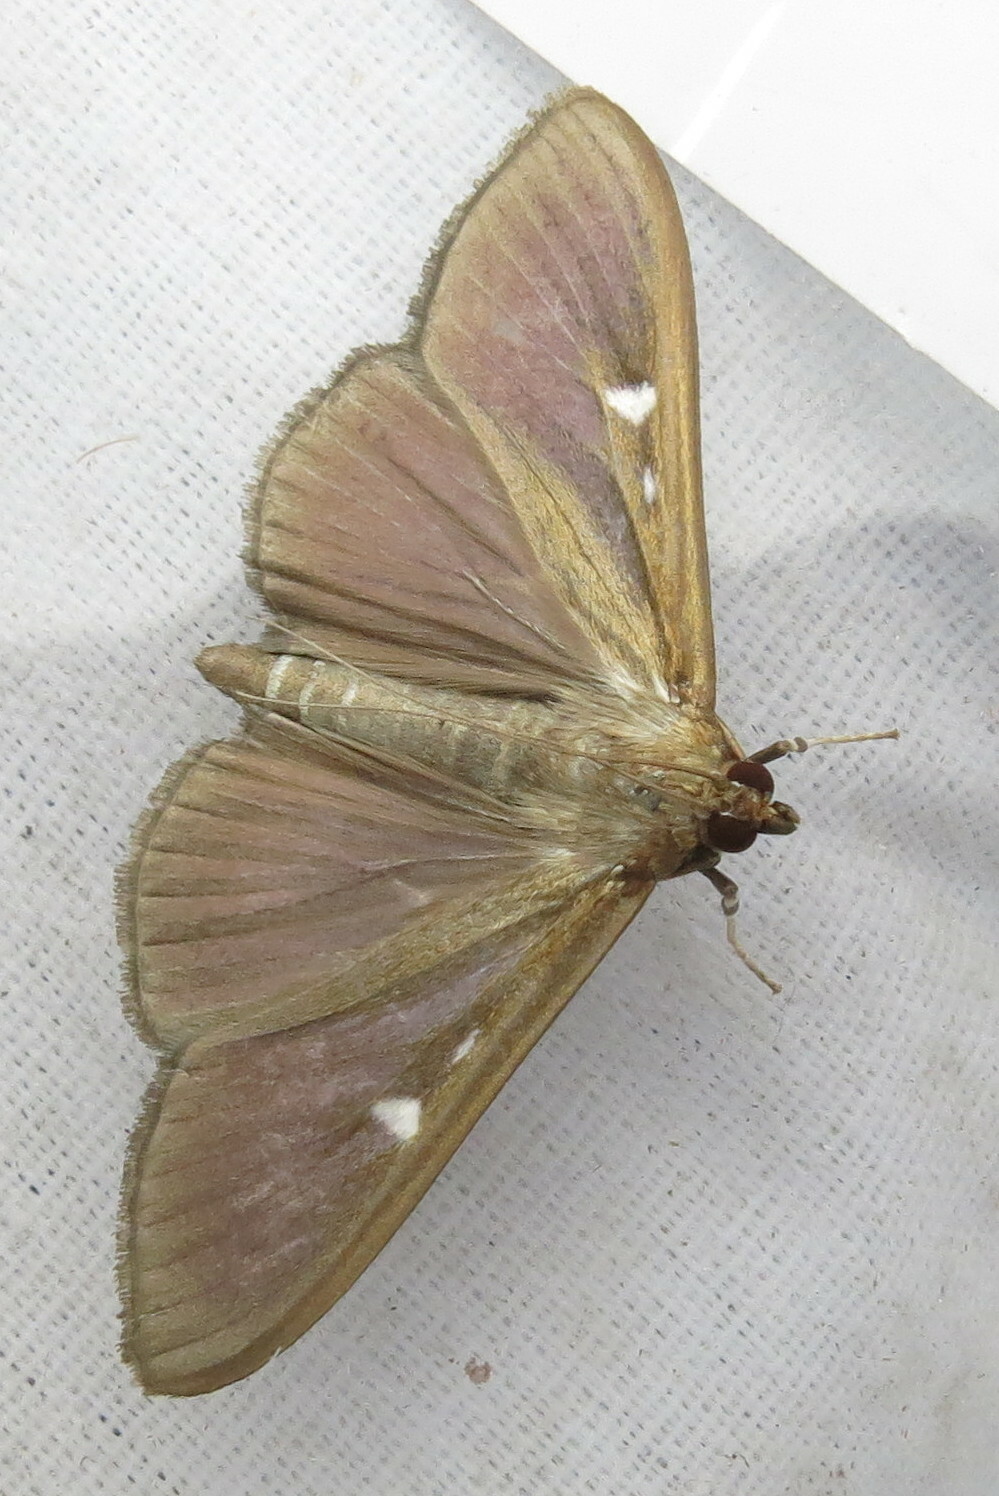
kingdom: Animalia
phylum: Arthropoda
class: Insecta
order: Lepidoptera
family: Crambidae
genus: Cydalima
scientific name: Cydalima perspectalis
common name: Box tree moth
